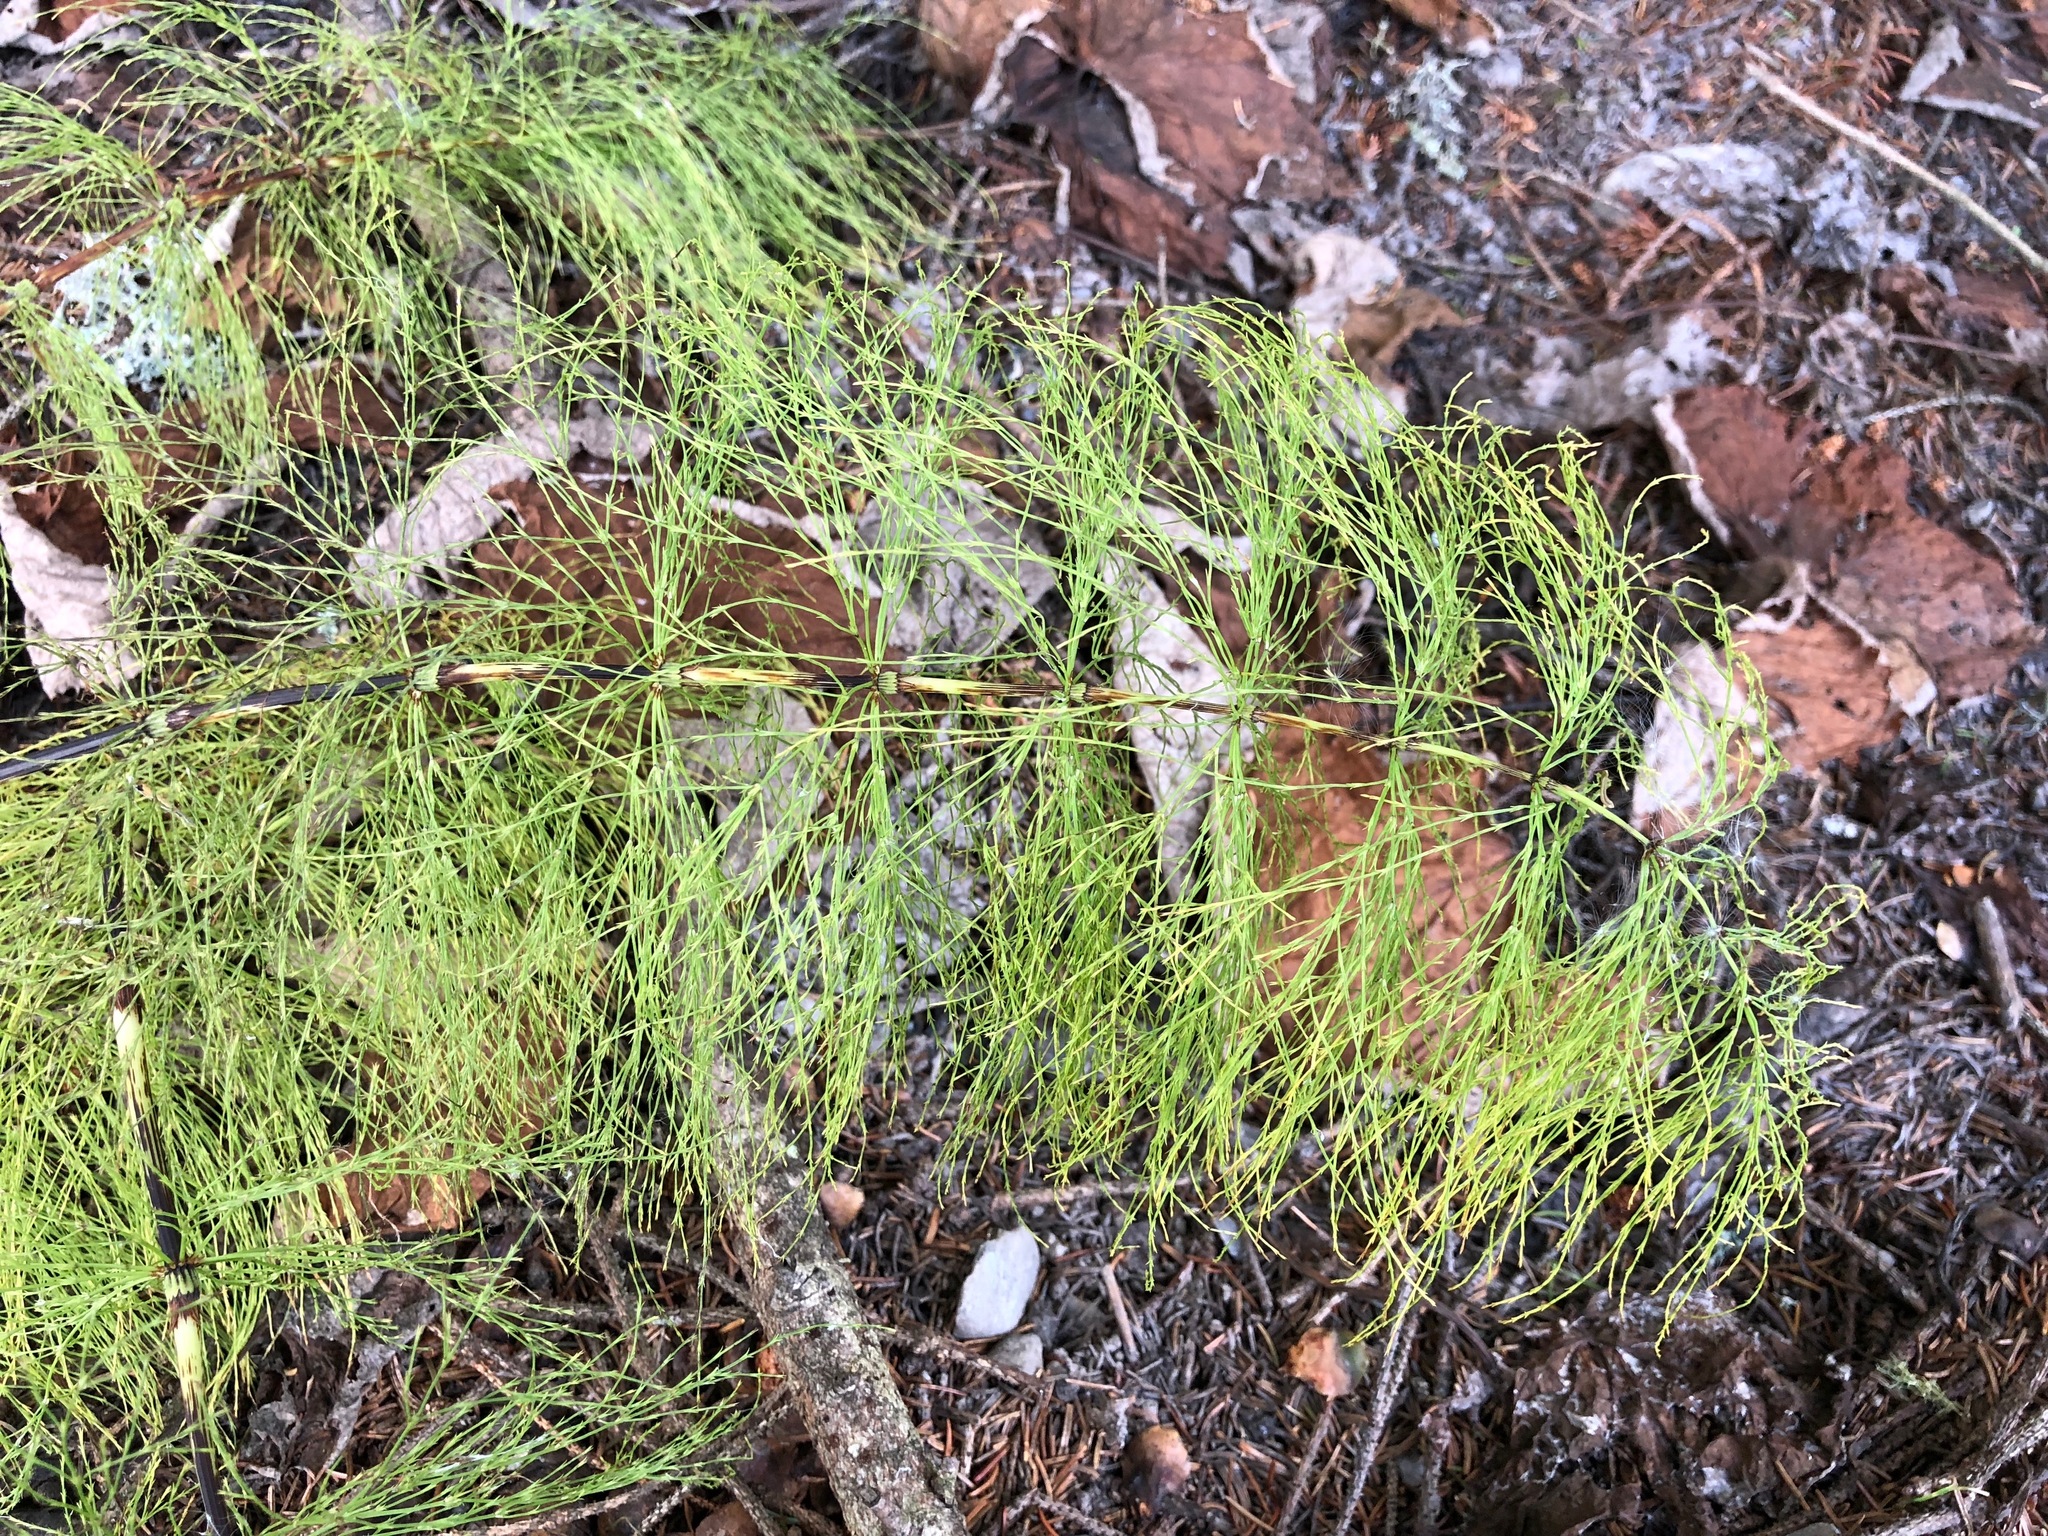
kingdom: Plantae
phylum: Tracheophyta
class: Polypodiopsida
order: Equisetales
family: Equisetaceae
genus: Equisetum
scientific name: Equisetum sylvaticum
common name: Wood horsetail
